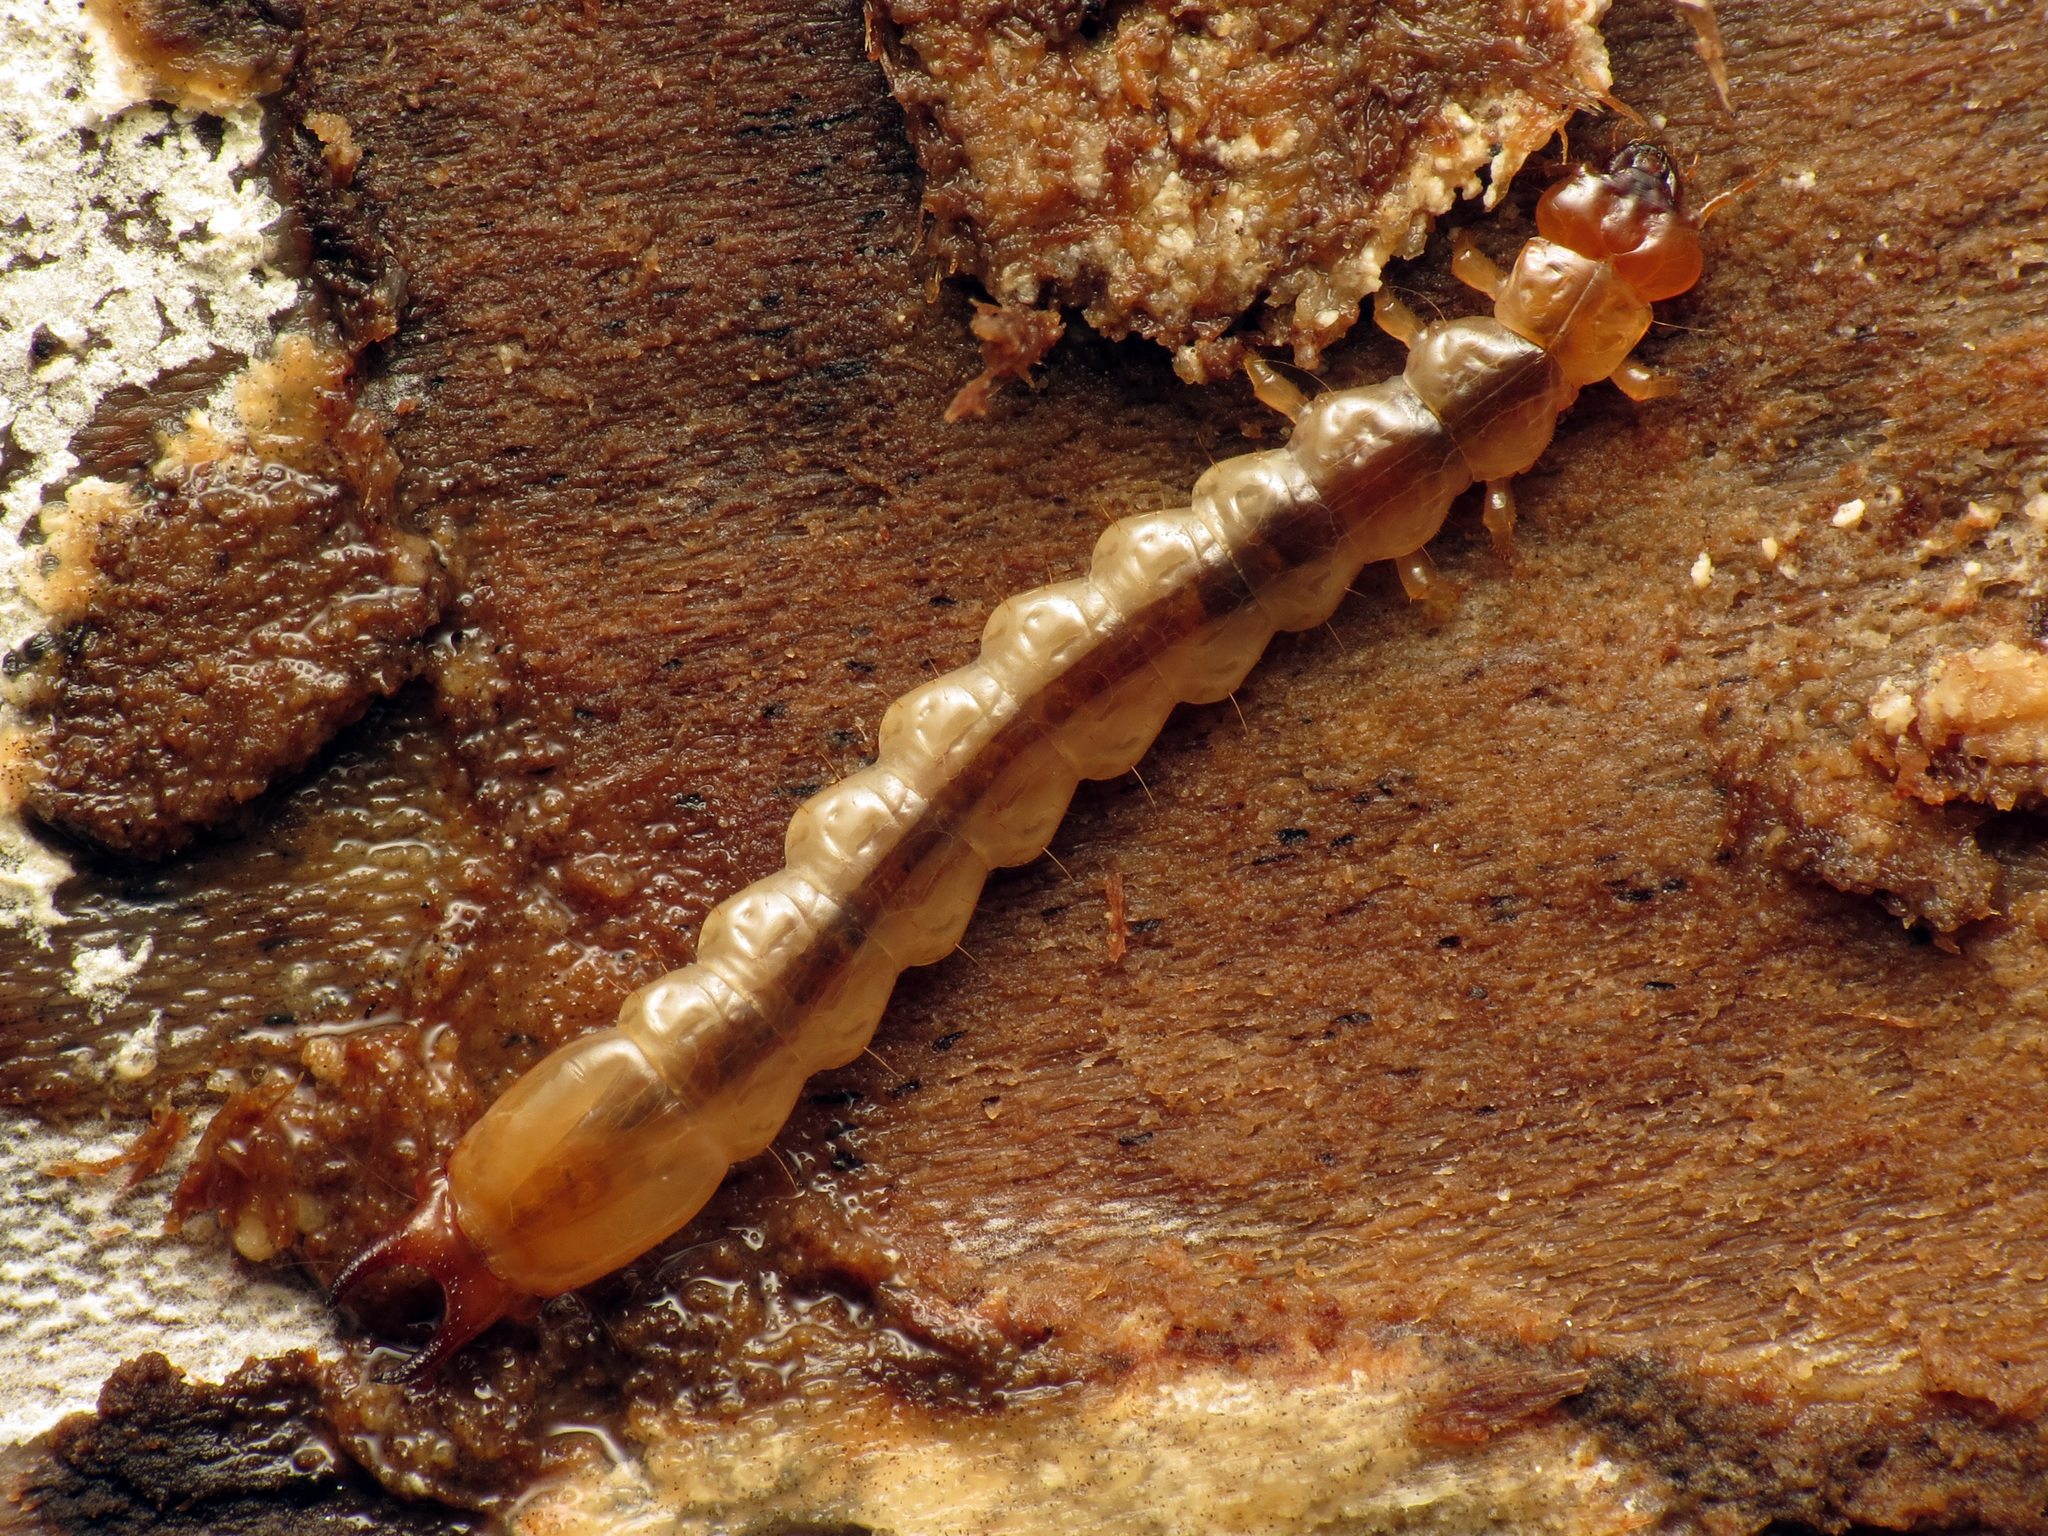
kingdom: Animalia
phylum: Arthropoda
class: Insecta
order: Coleoptera
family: Pyrochroidae
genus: Dendroides
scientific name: Dendroides canadensis
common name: Canada fire-colored beetle
